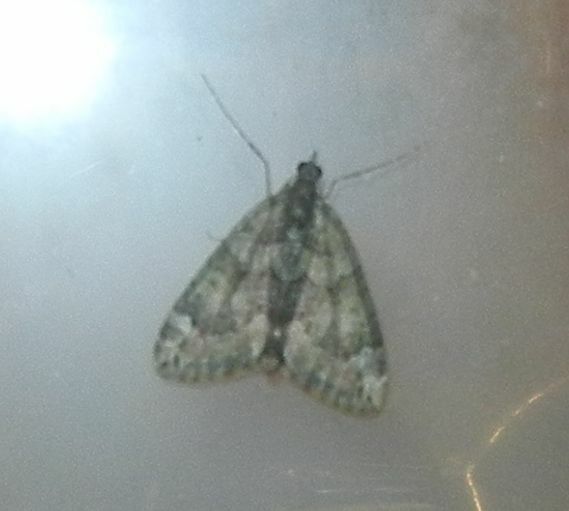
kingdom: Animalia
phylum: Arthropoda
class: Insecta
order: Lepidoptera
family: Geometridae
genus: Chloroclysta
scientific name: Chloroclysta siterata
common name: Red-green carpet
